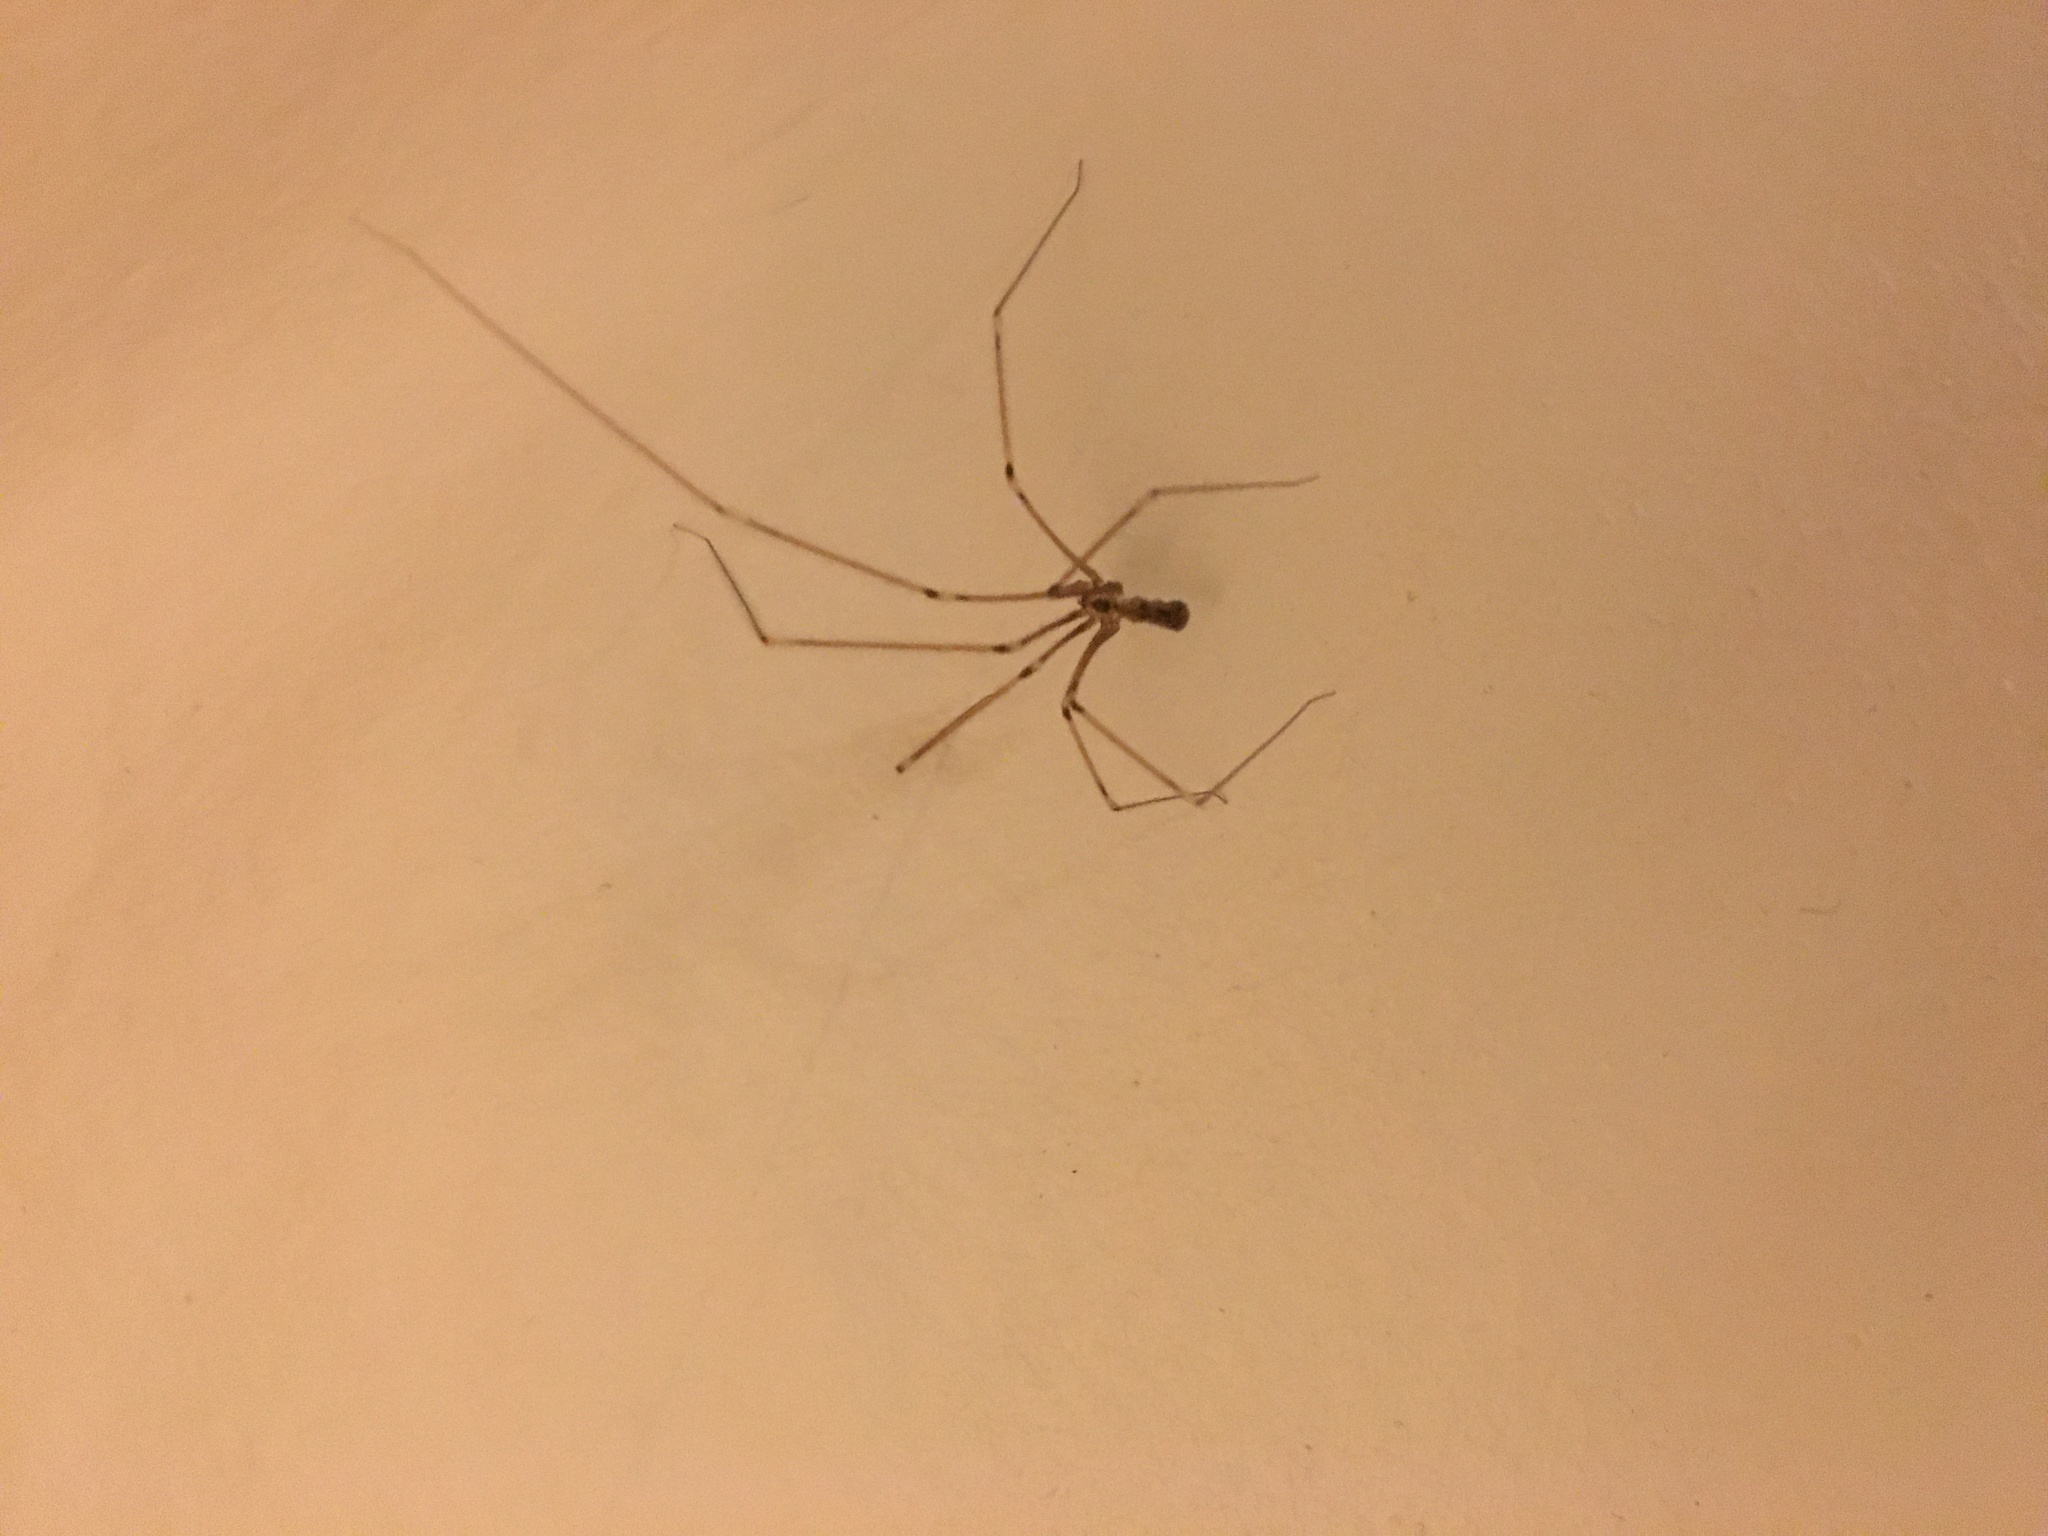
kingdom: Animalia
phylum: Arthropoda
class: Arachnida
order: Araneae
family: Pholcidae
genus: Pholcus
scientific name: Pholcus phalangioides
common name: Longbodied cellar spider
